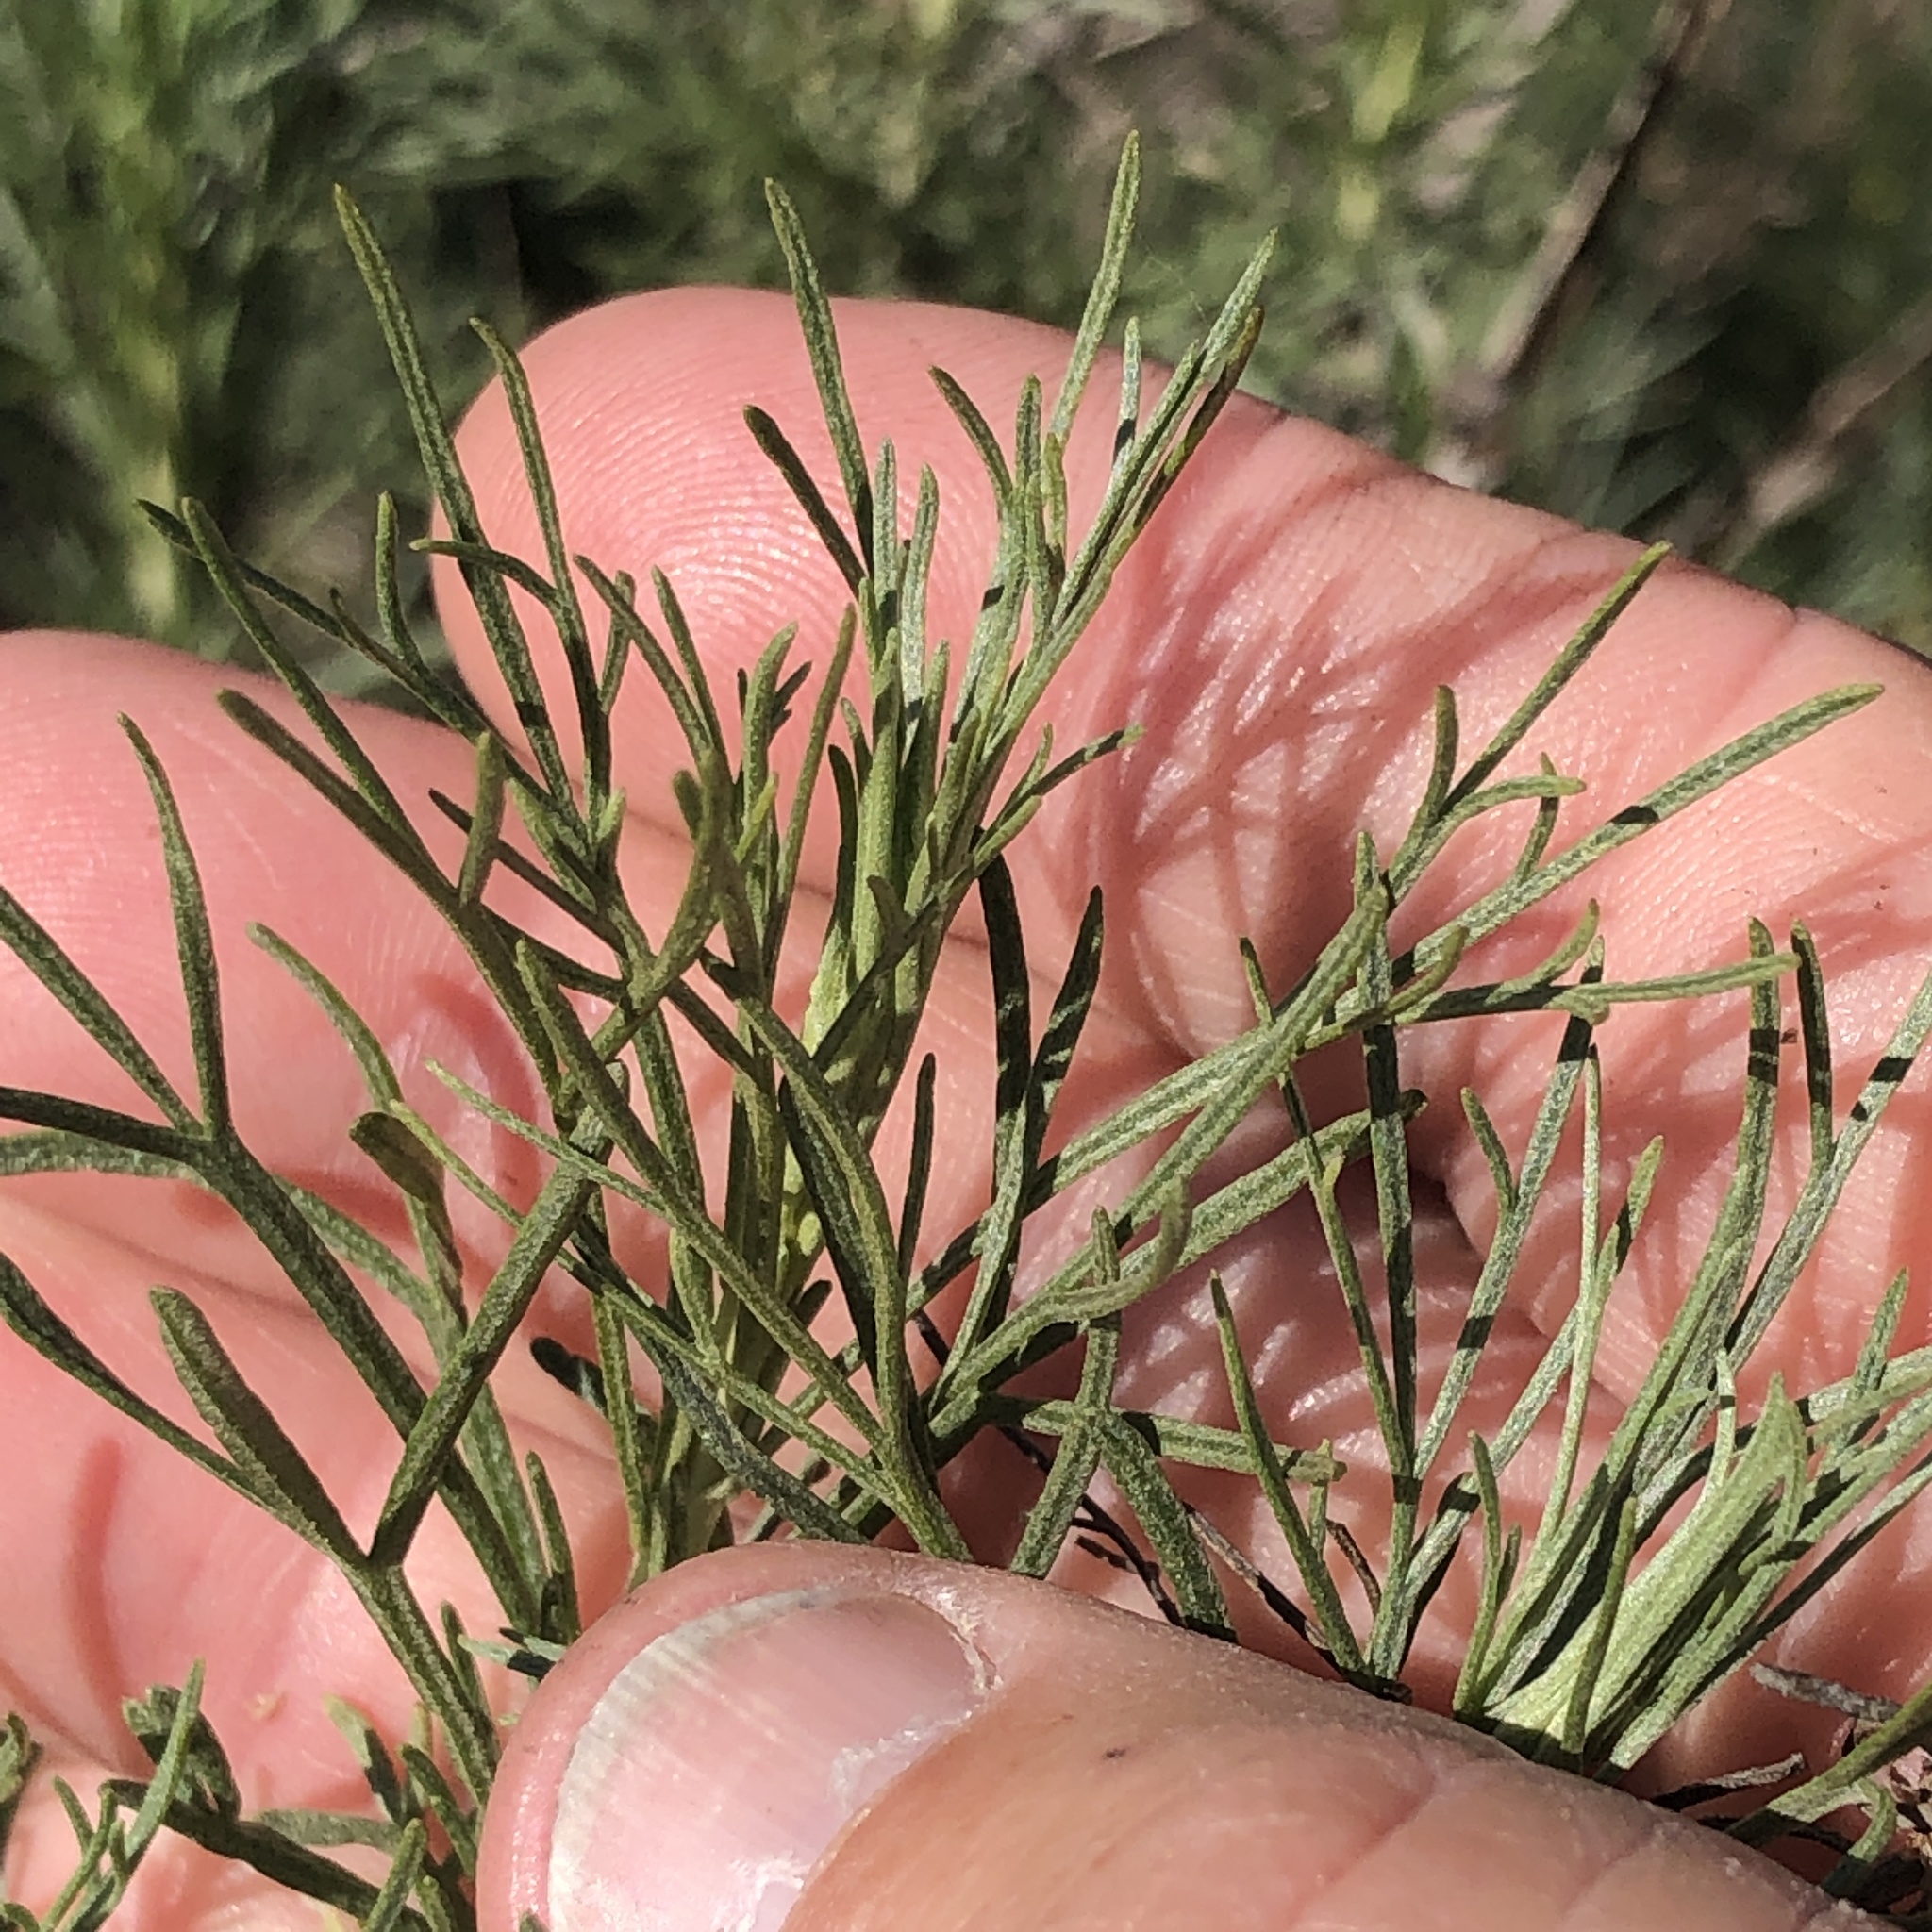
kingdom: Plantae
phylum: Tracheophyta
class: Magnoliopsida
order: Asterales
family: Asteraceae
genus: Artemisia
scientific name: Artemisia californica
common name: California sagebrush
